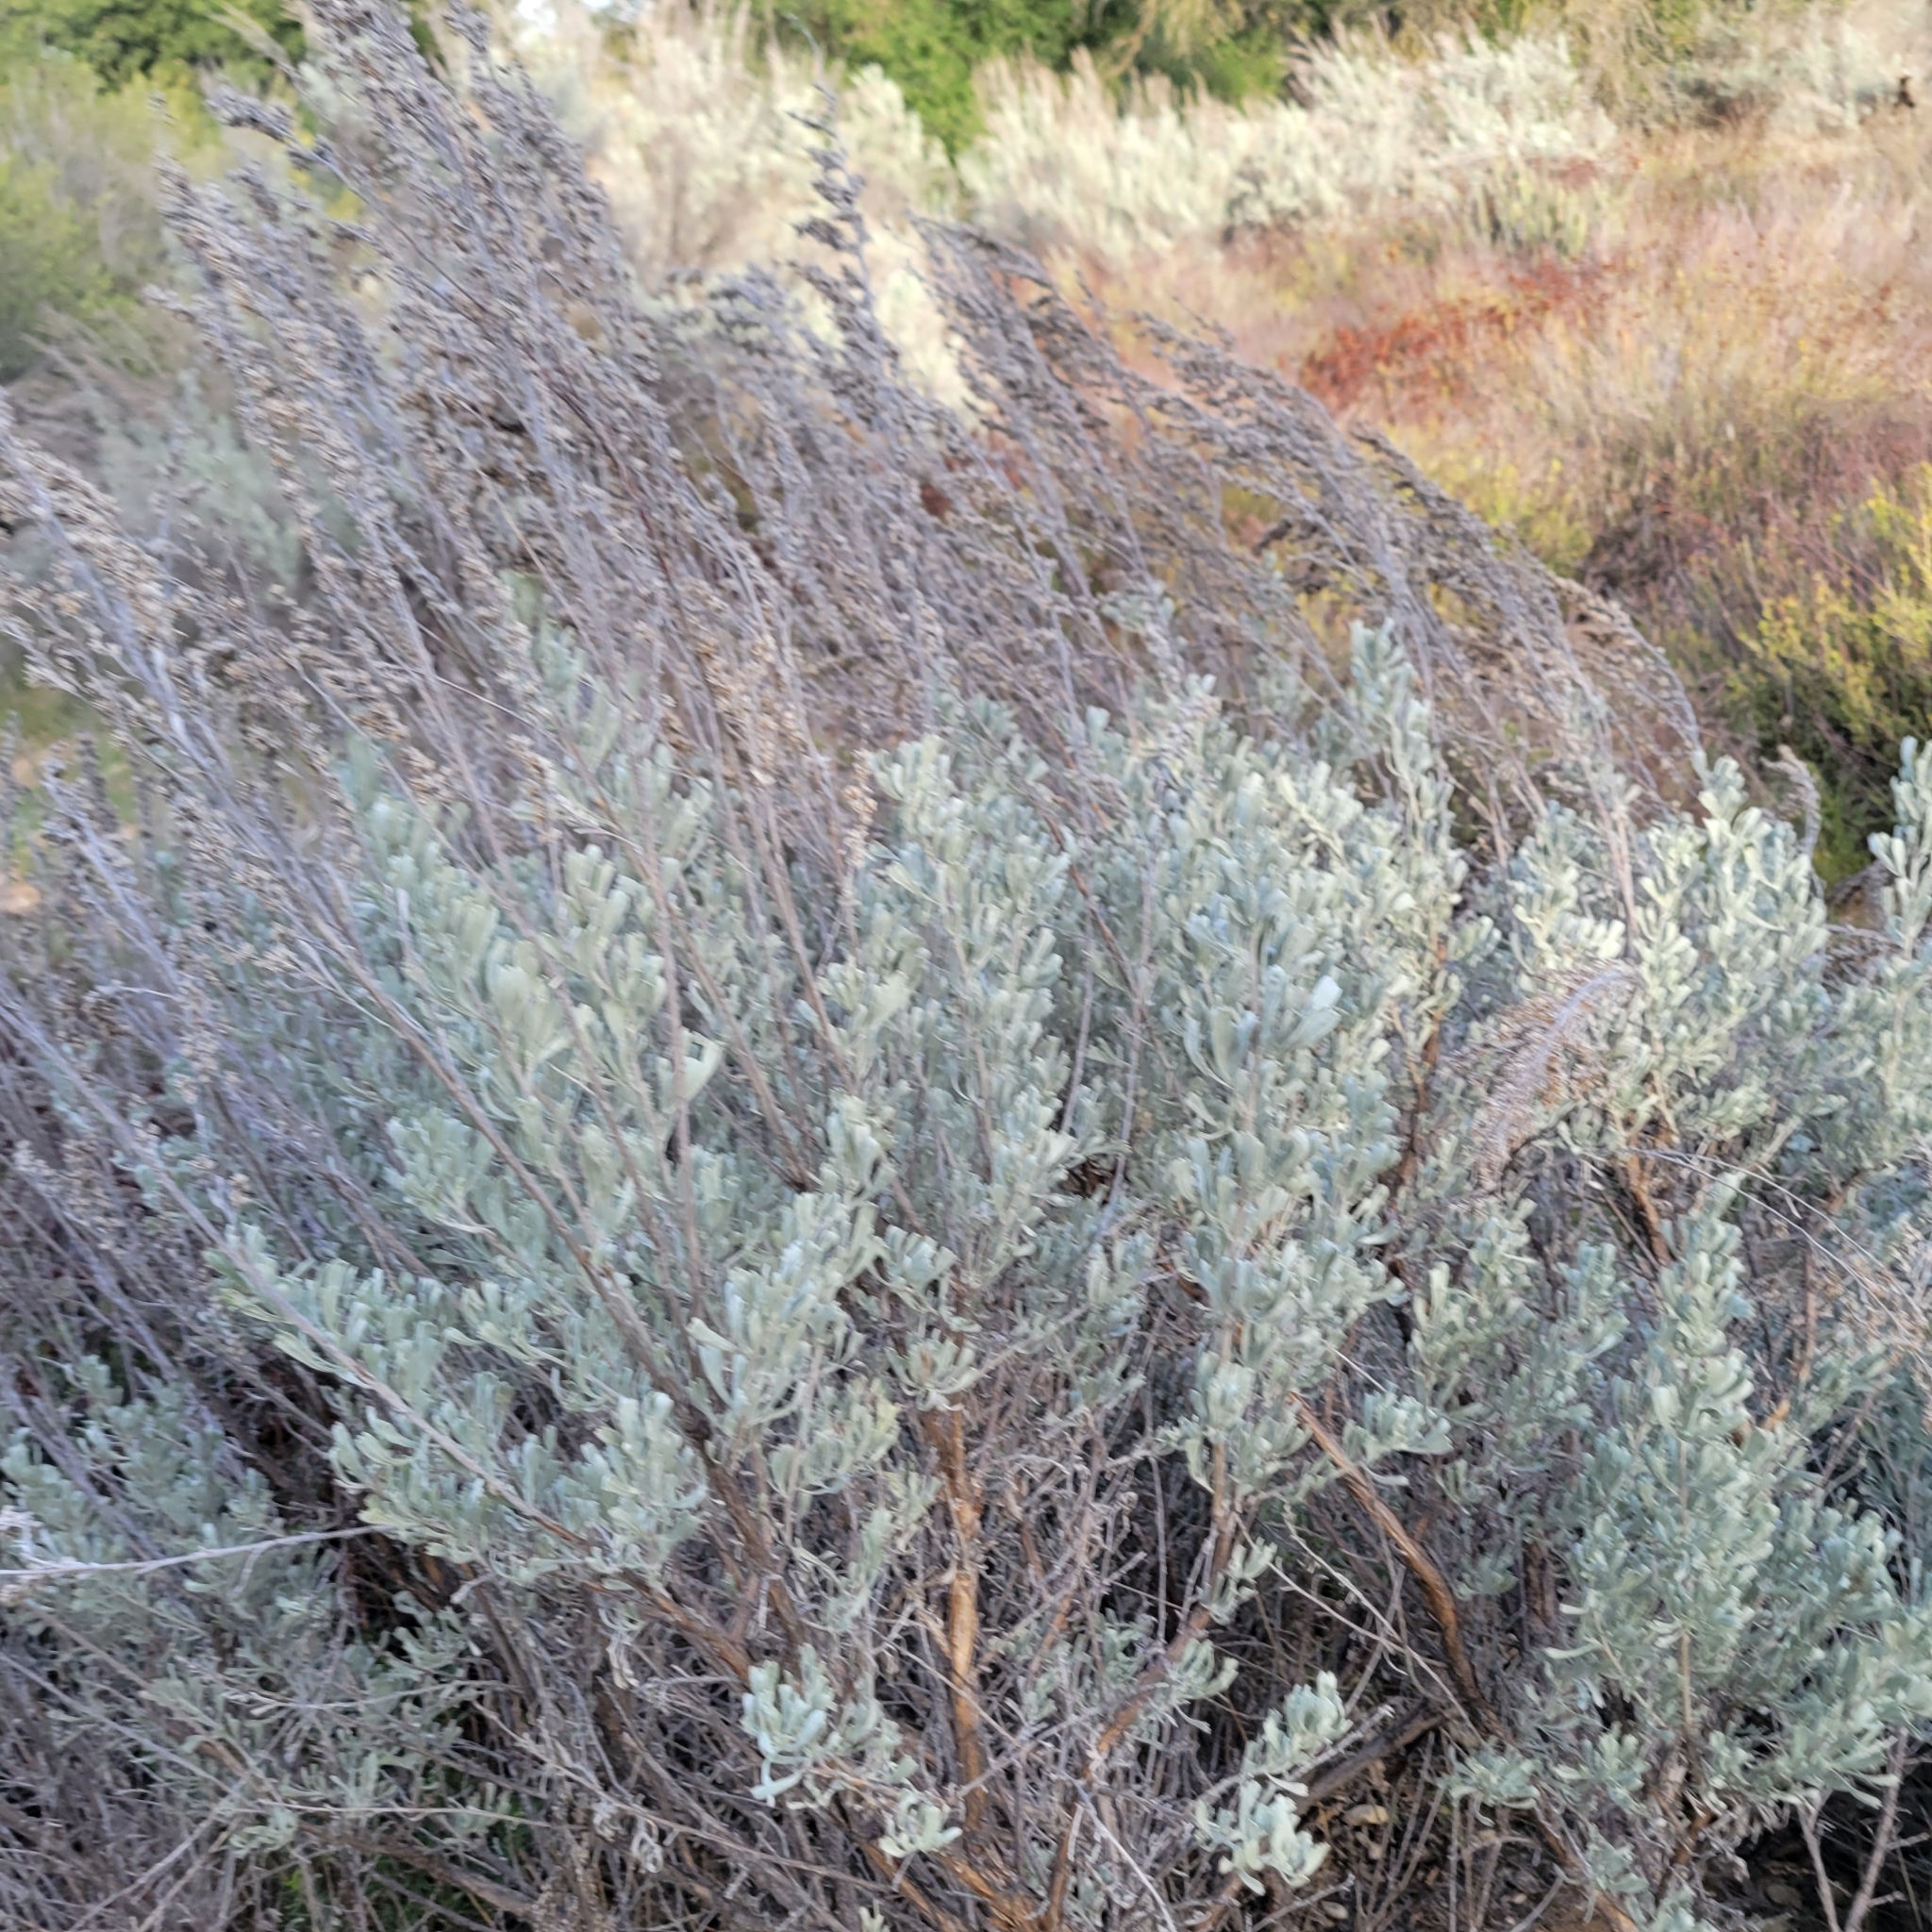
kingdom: Plantae
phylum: Tracheophyta
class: Magnoliopsida
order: Asterales
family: Asteraceae
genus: Artemisia
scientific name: Artemisia tridentata
